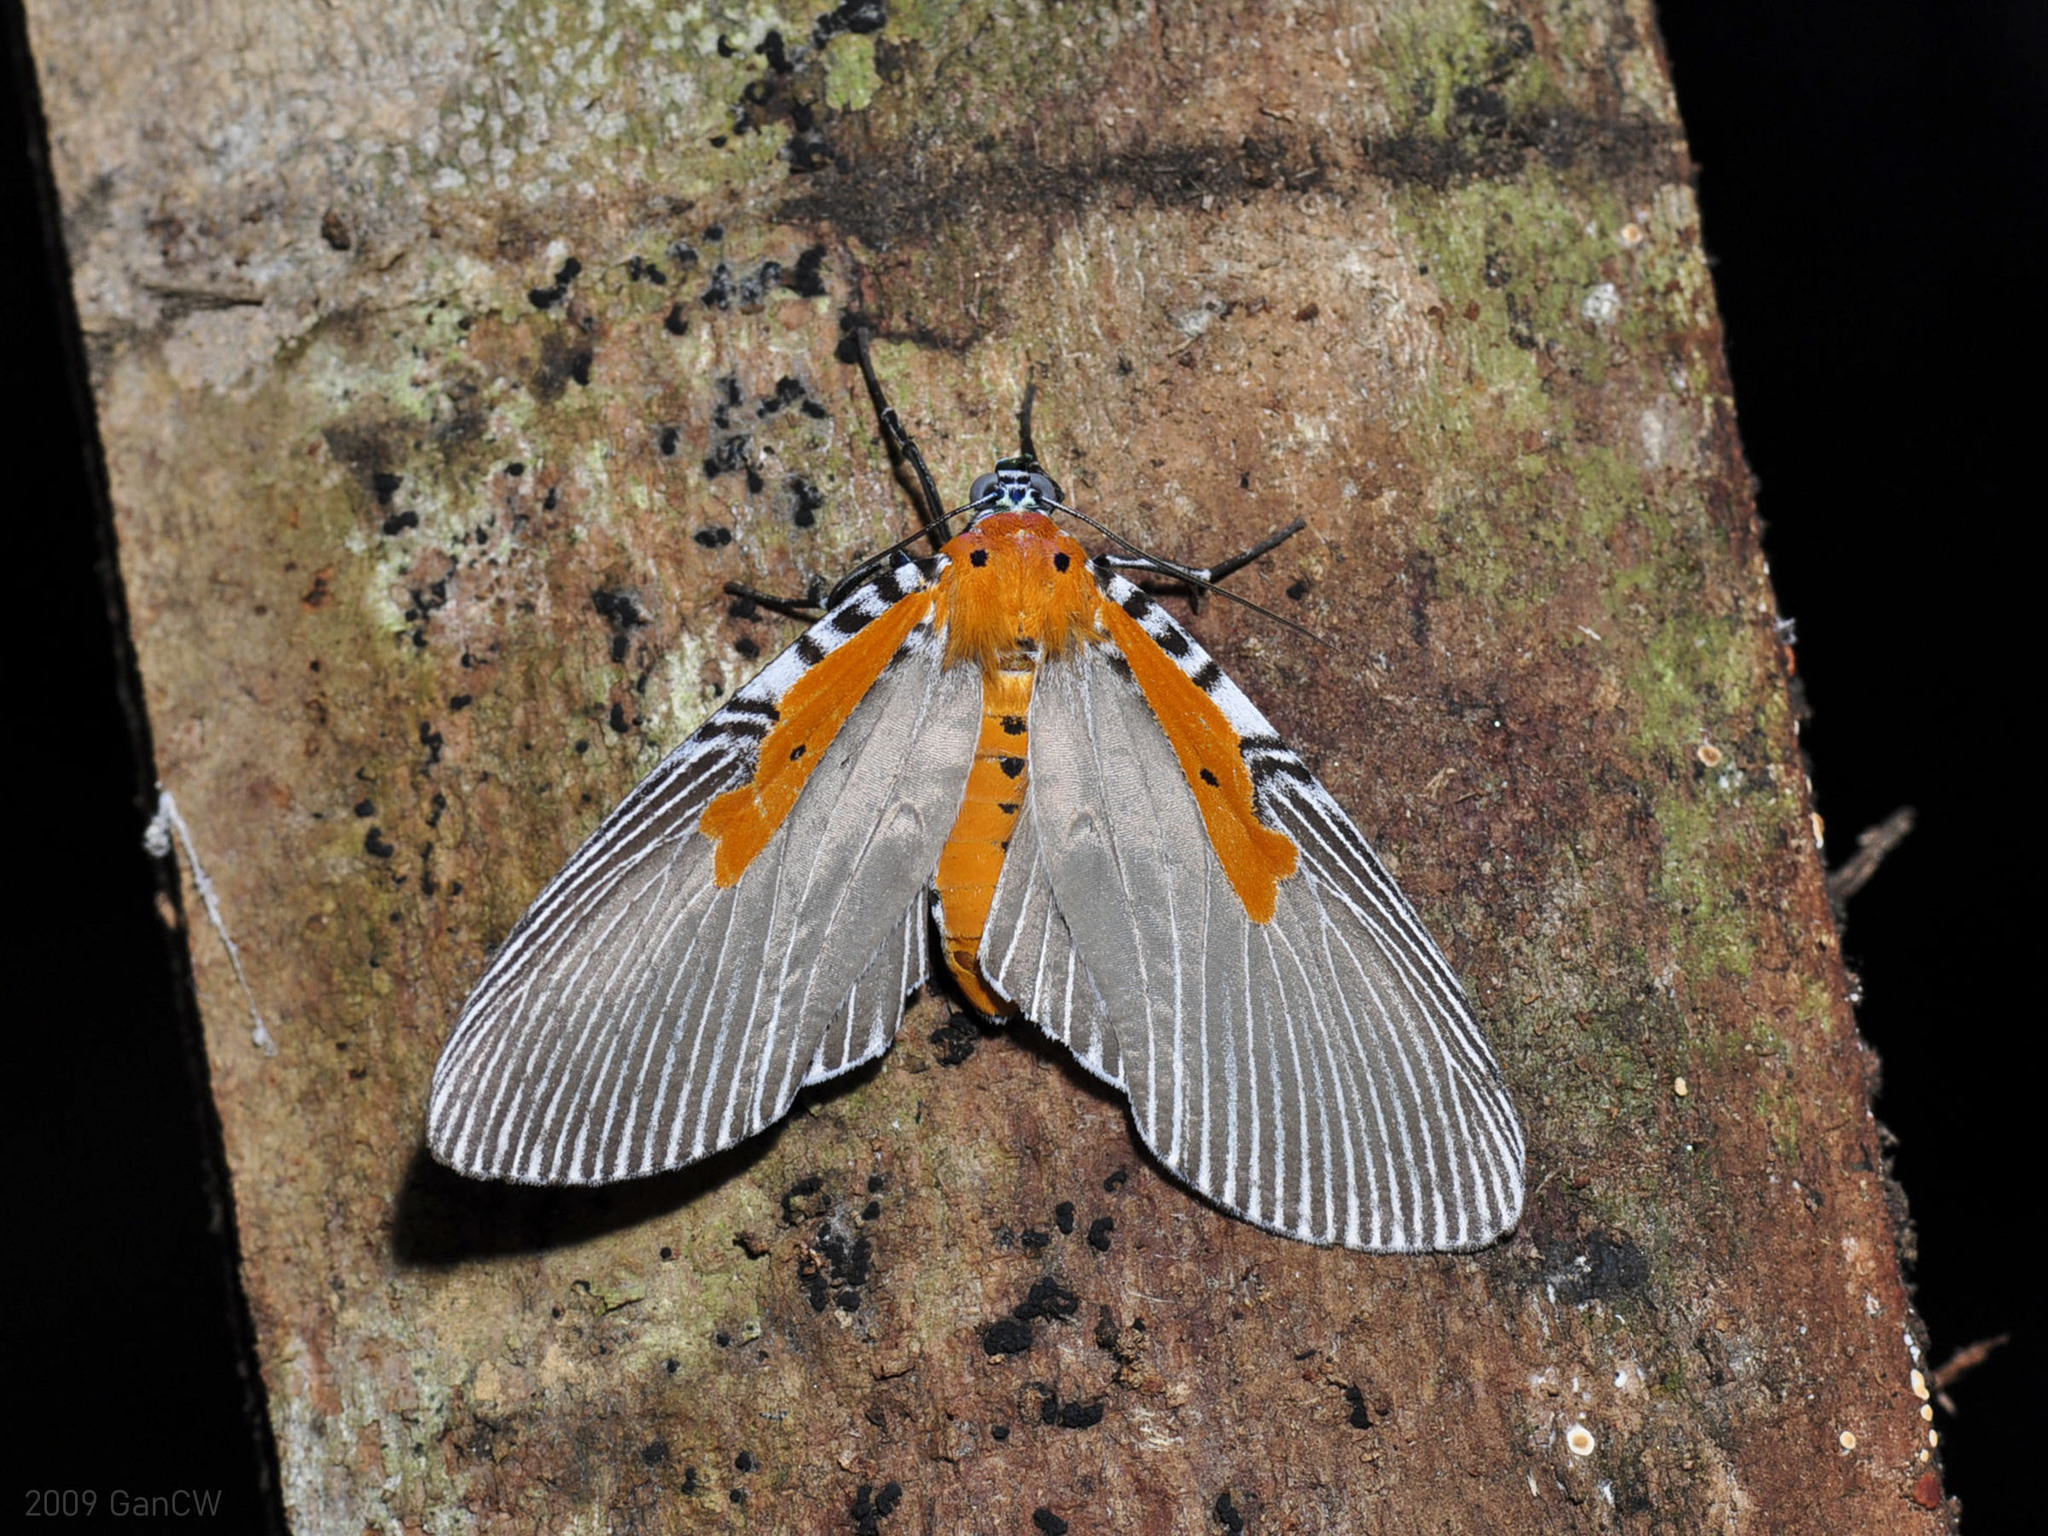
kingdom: Animalia
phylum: Arthropoda
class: Insecta
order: Lepidoptera
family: Erebidae
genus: Euplocia
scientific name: Euplocia membliaria
